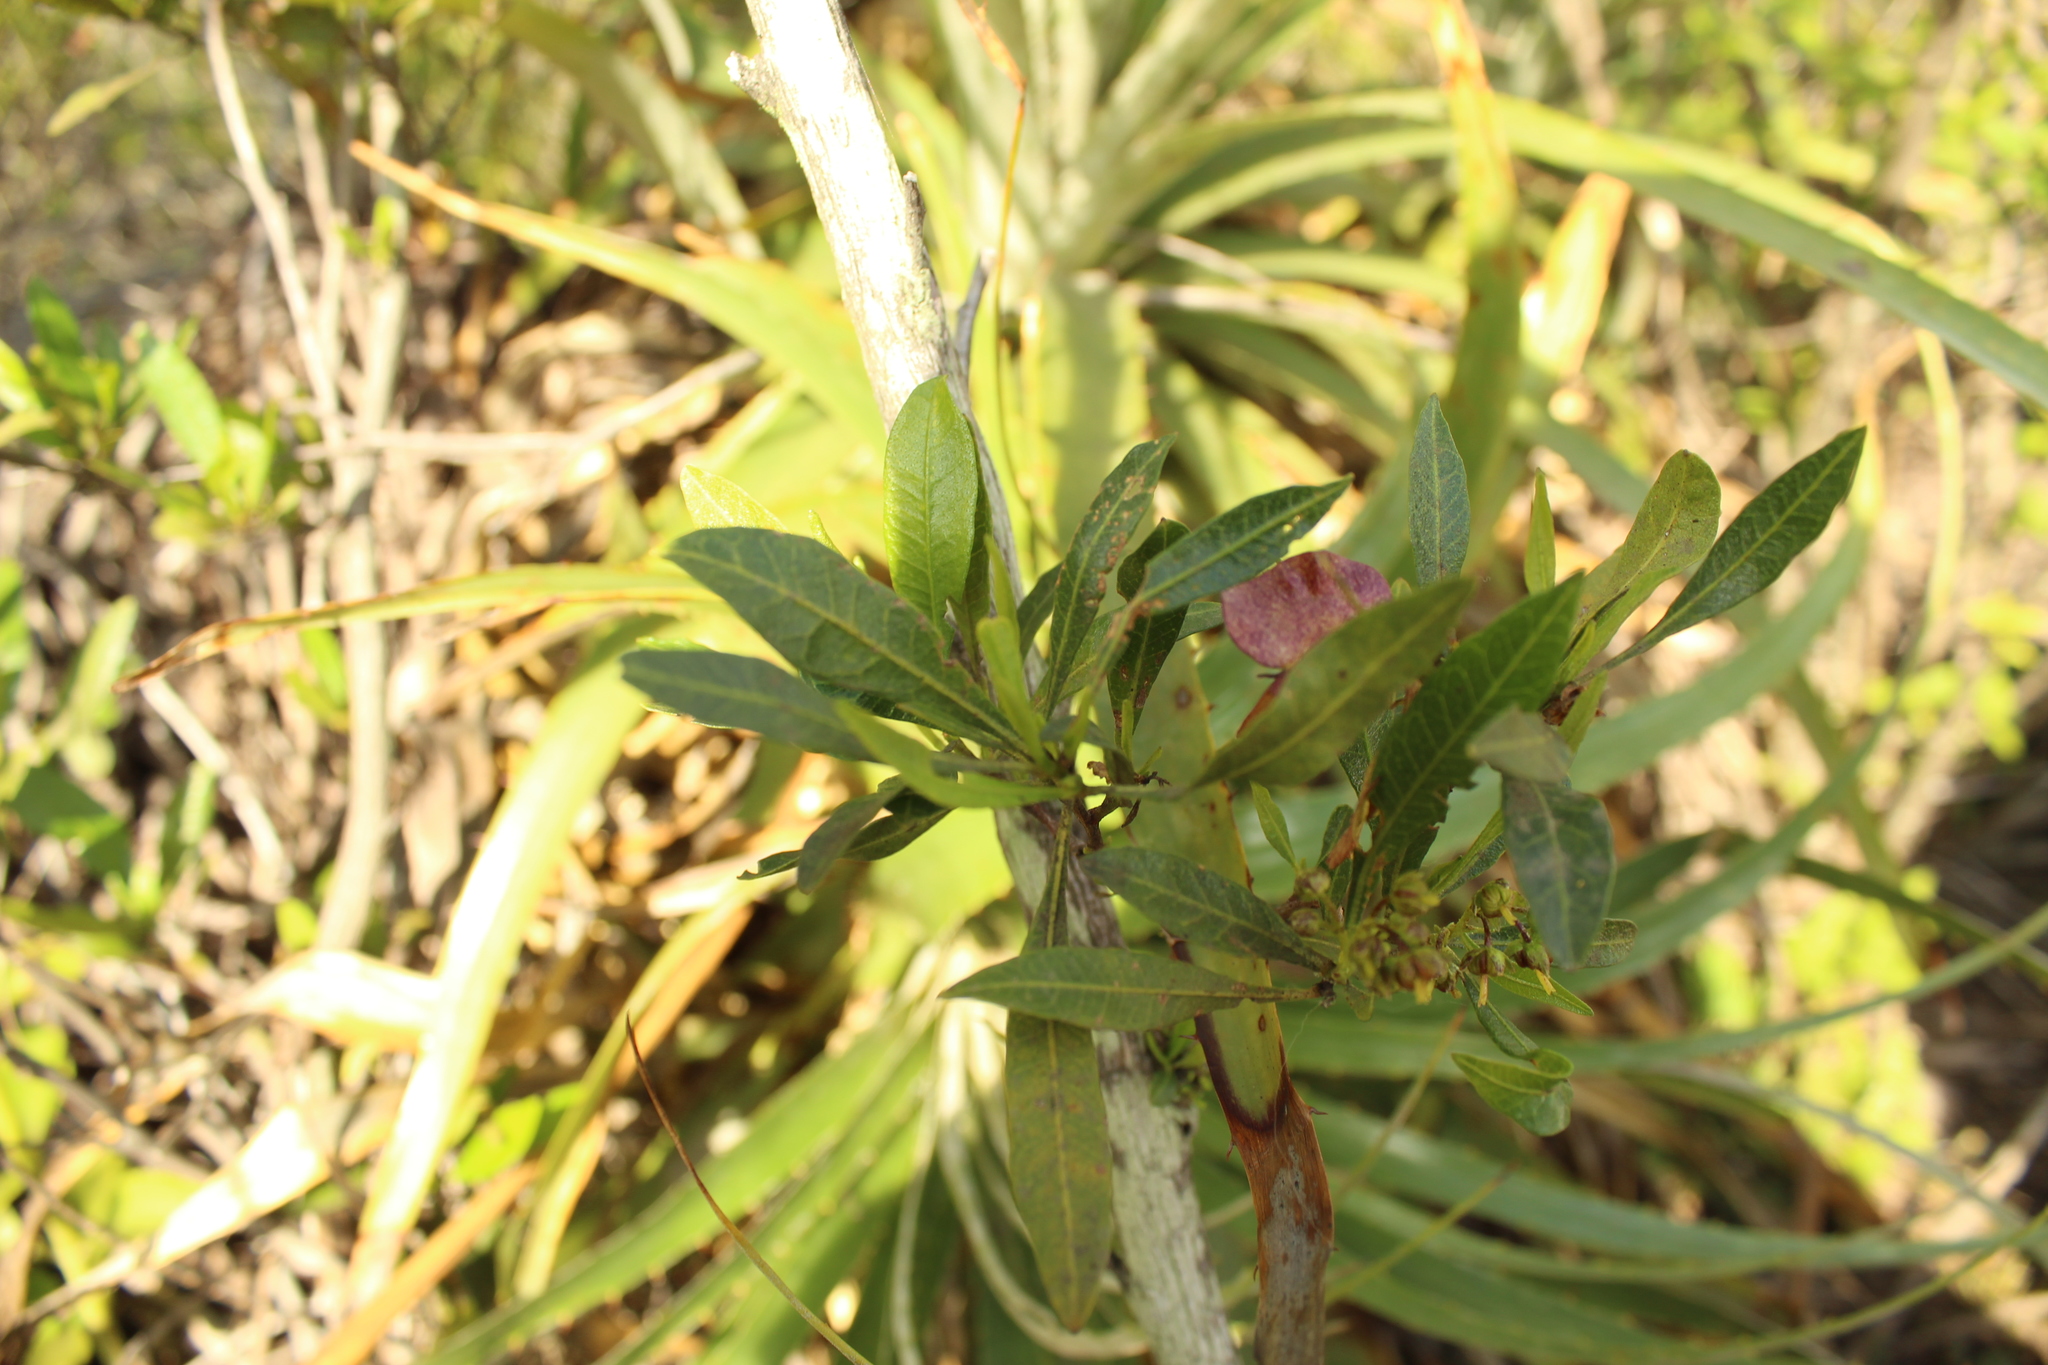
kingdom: Plantae
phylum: Tracheophyta
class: Magnoliopsida
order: Sapindales
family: Sapindaceae
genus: Dodonaea
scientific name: Dodonaea viscosa
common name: Hopbush
